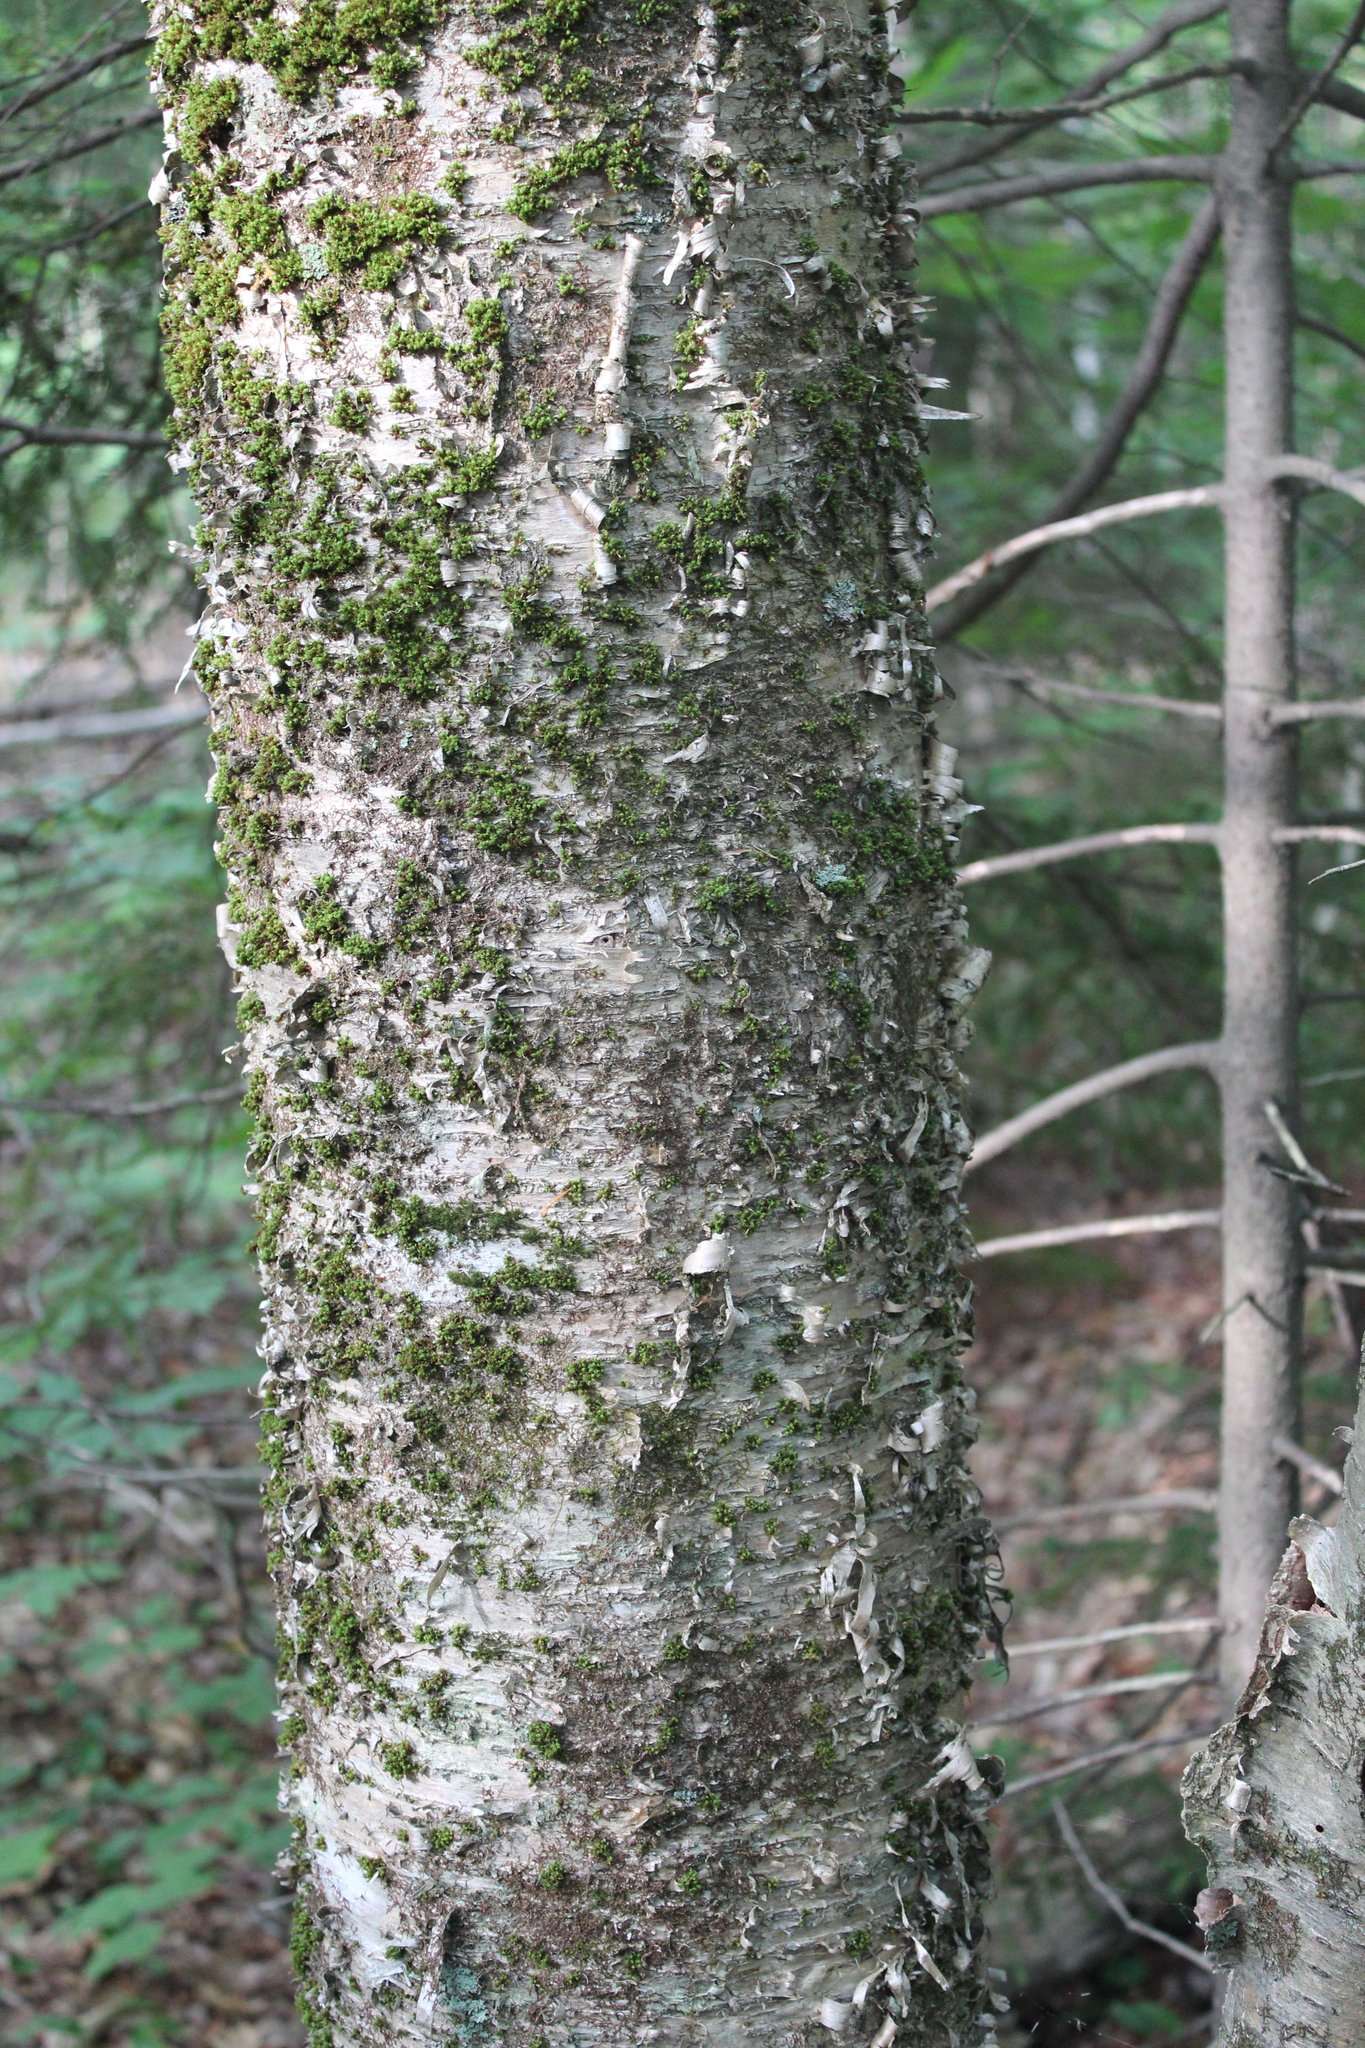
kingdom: Plantae
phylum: Tracheophyta
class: Magnoliopsida
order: Fagales
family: Betulaceae
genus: Betula
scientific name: Betula alleghaniensis
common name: Yellow birch
